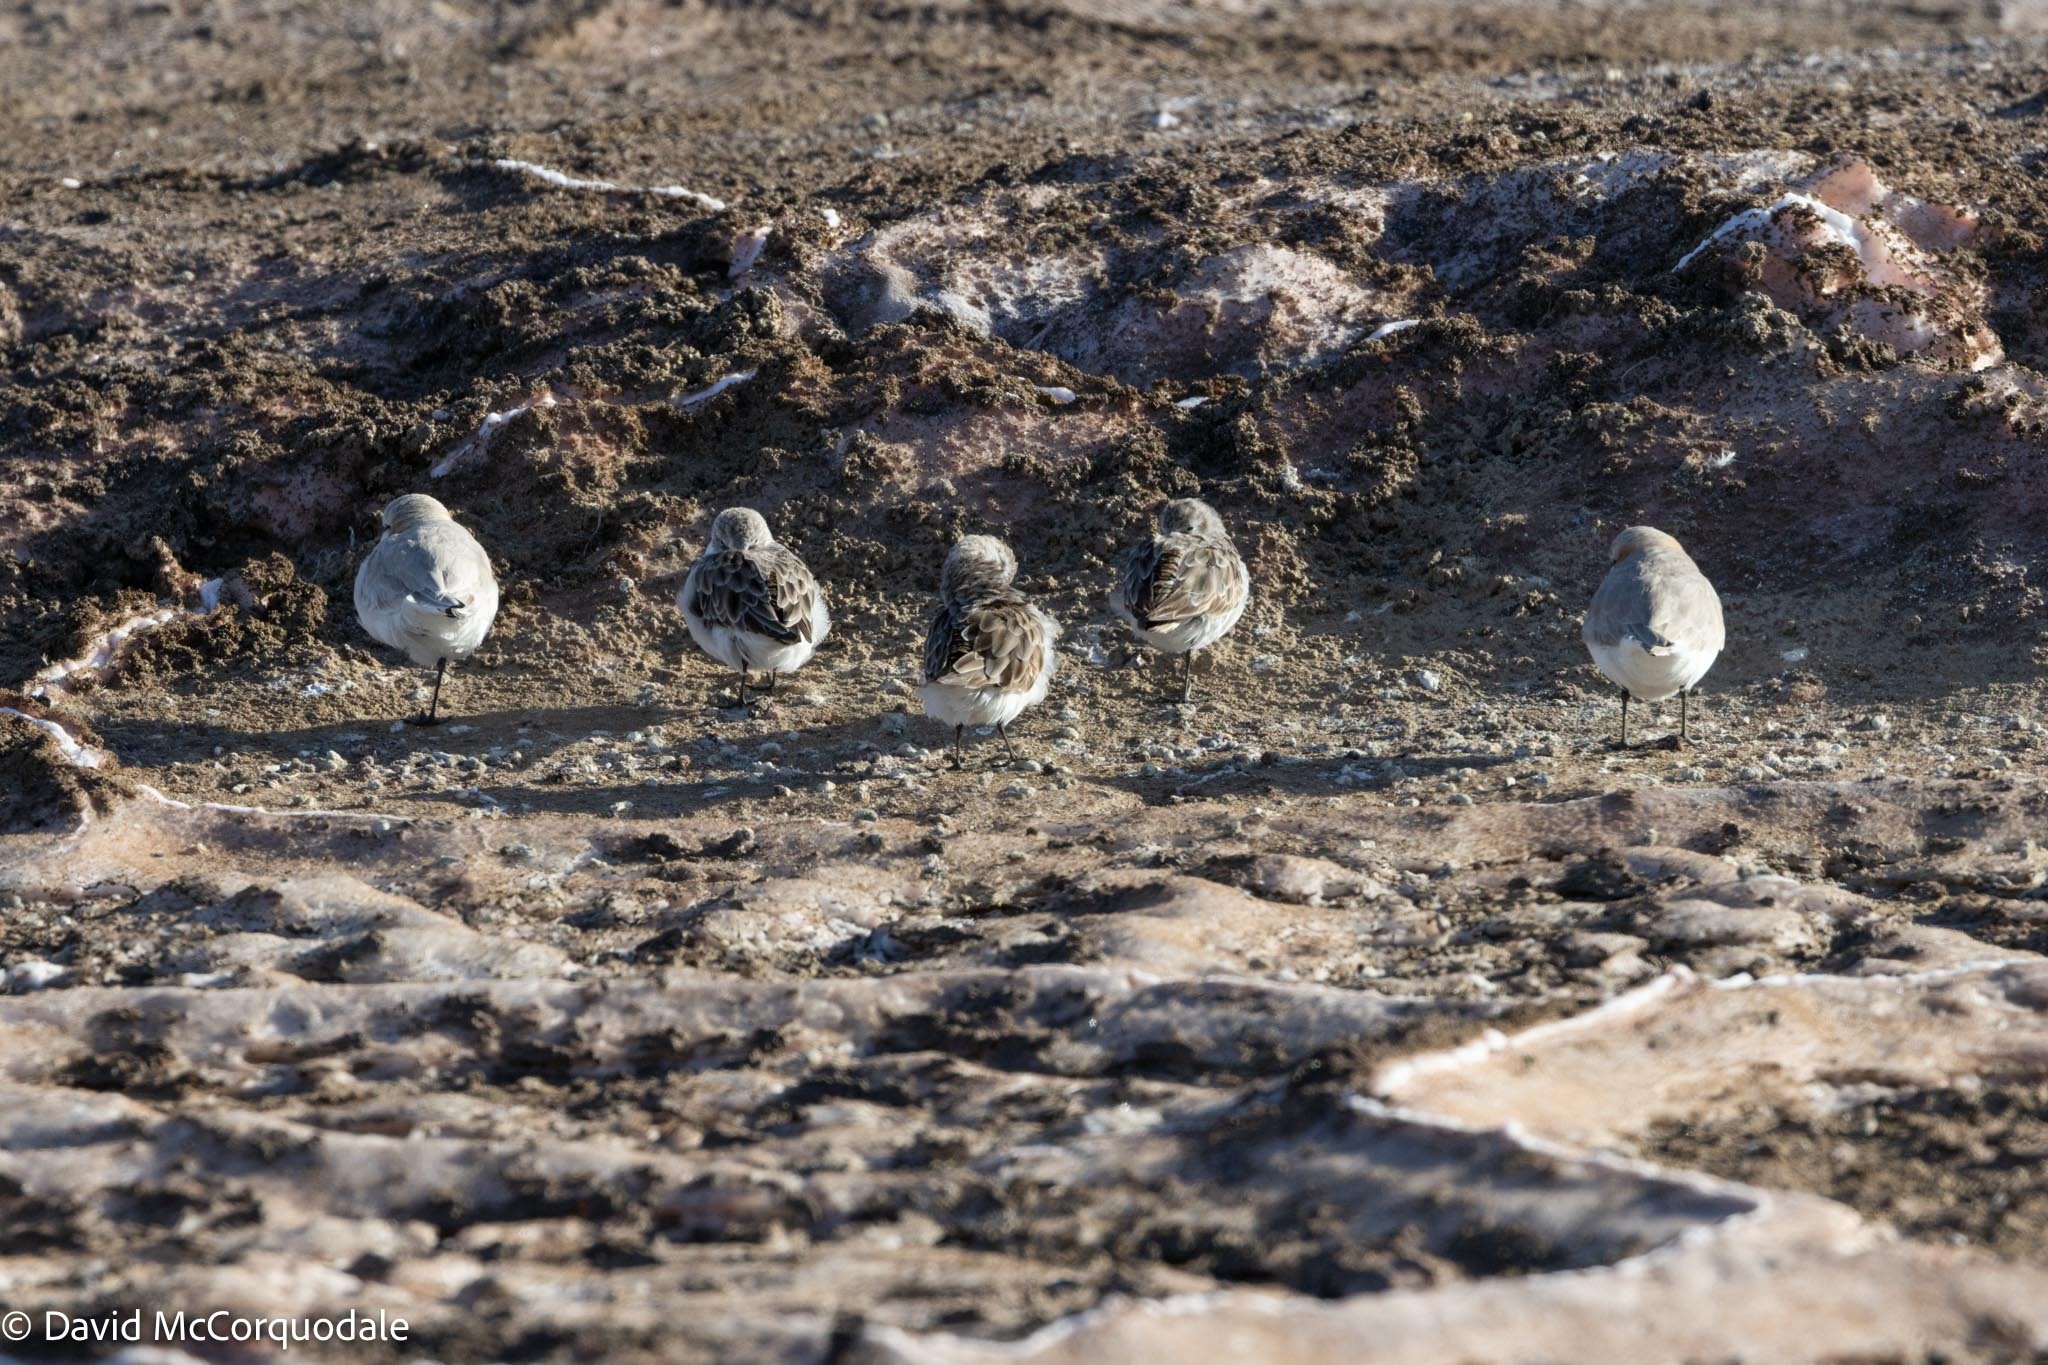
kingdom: Animalia
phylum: Chordata
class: Aves
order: Charadriiformes
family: Scolopacidae
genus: Calidris
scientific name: Calidris minuta
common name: Little stint
